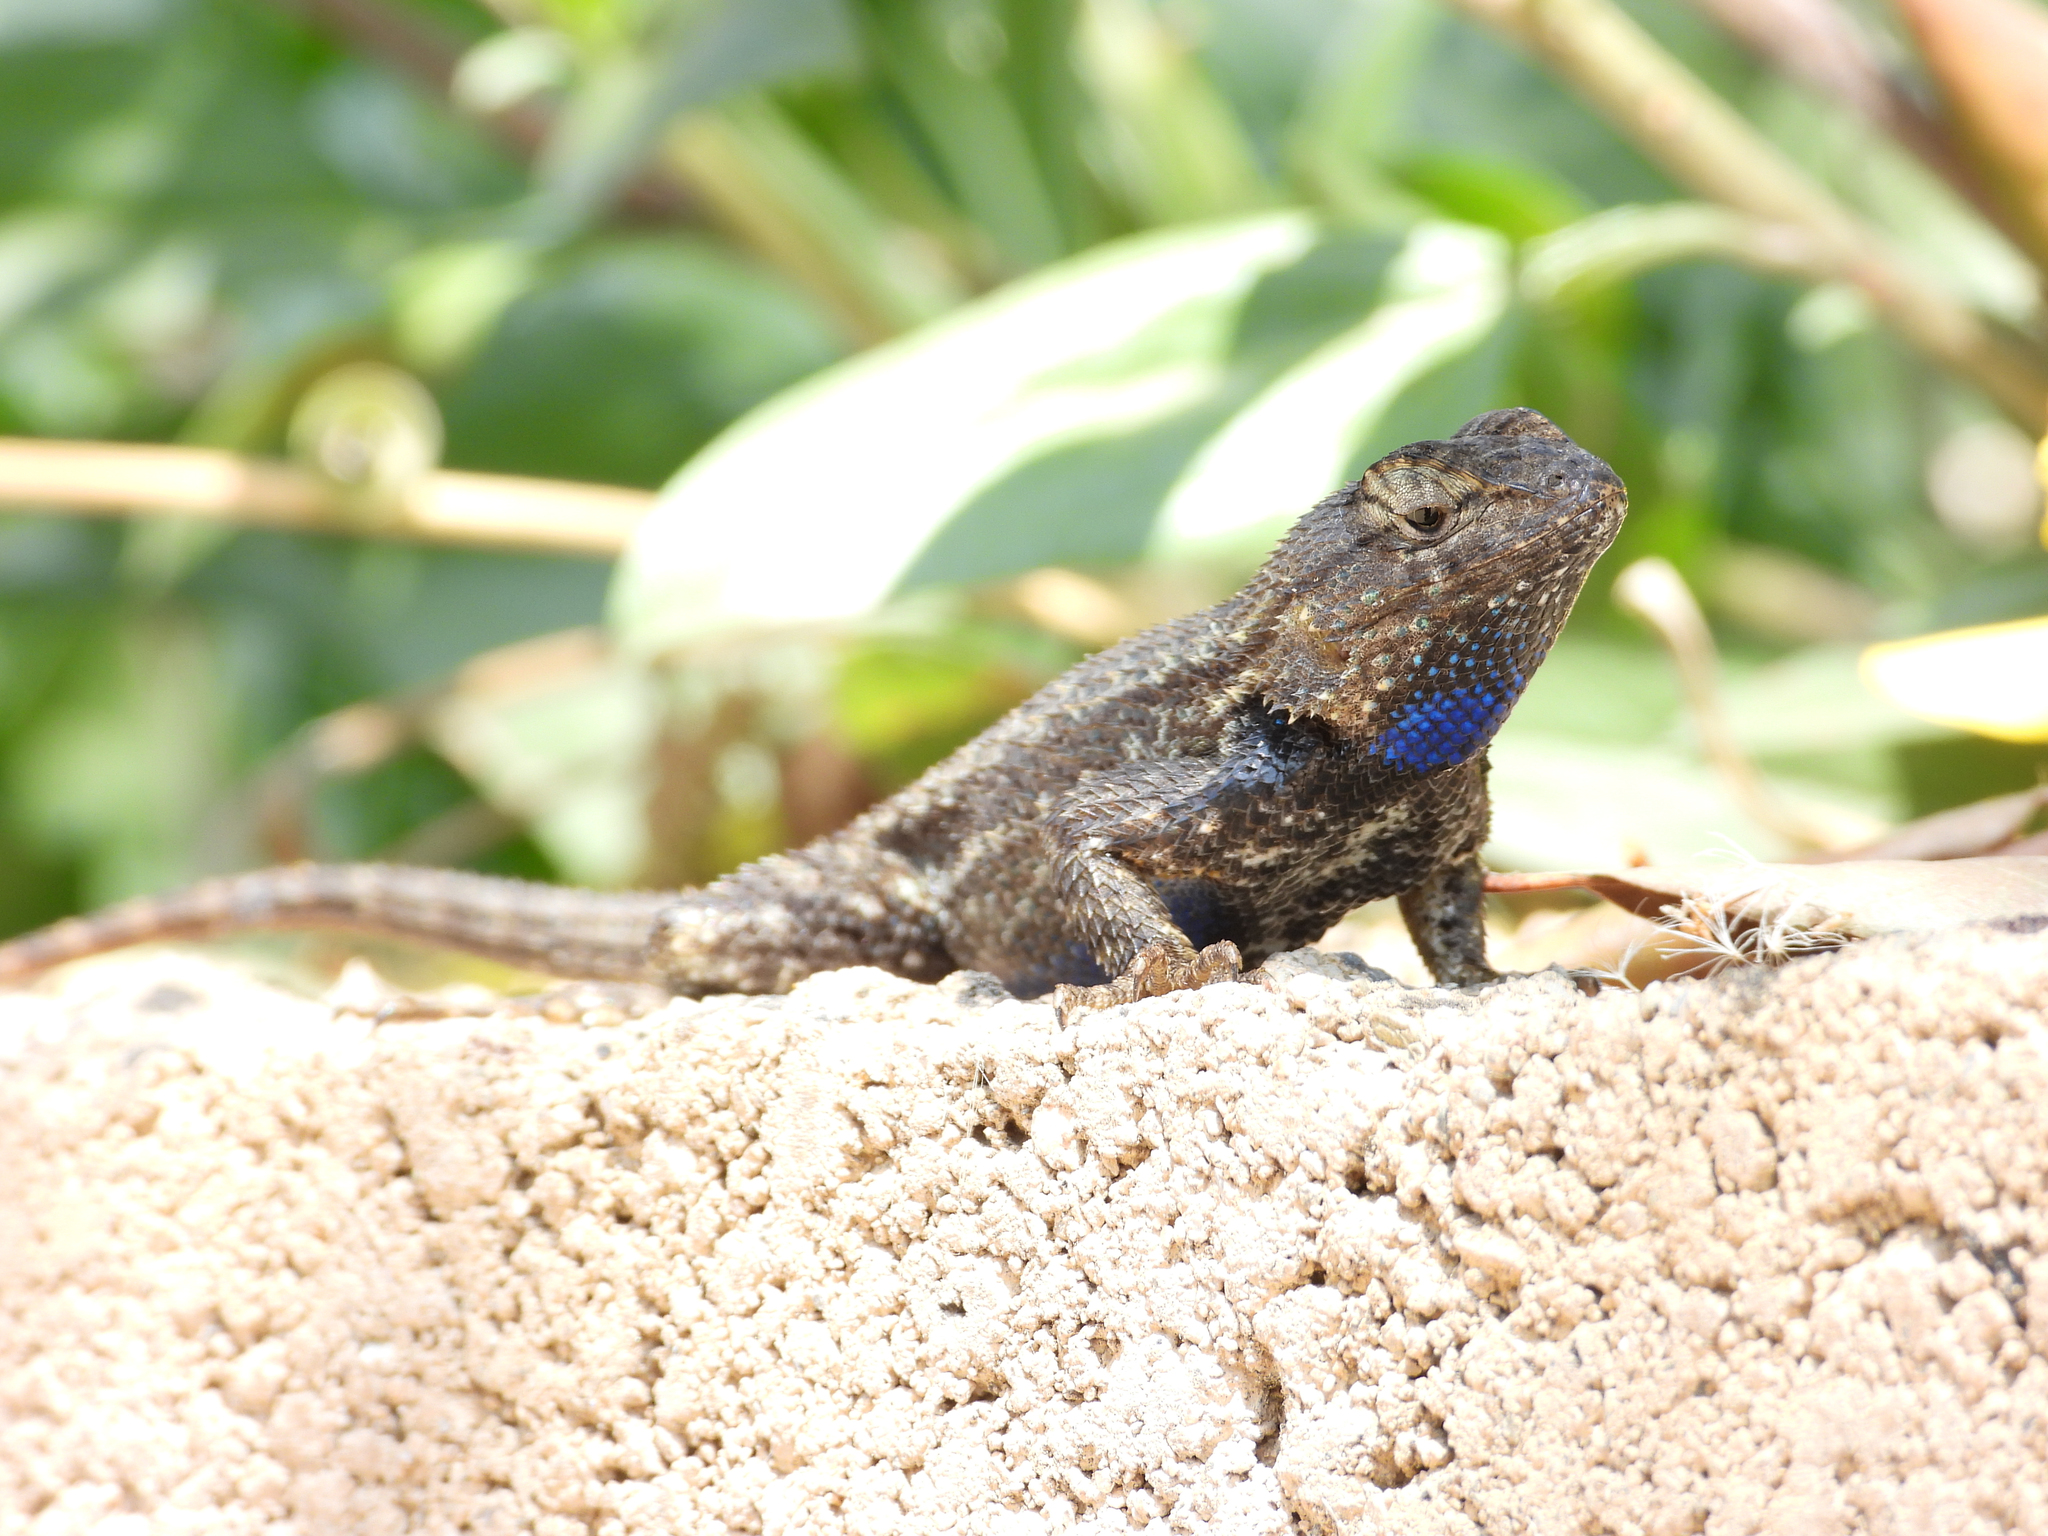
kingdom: Animalia
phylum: Chordata
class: Squamata
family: Phrynosomatidae
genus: Sceloporus
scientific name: Sceloporus occidentalis
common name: Western fence lizard
